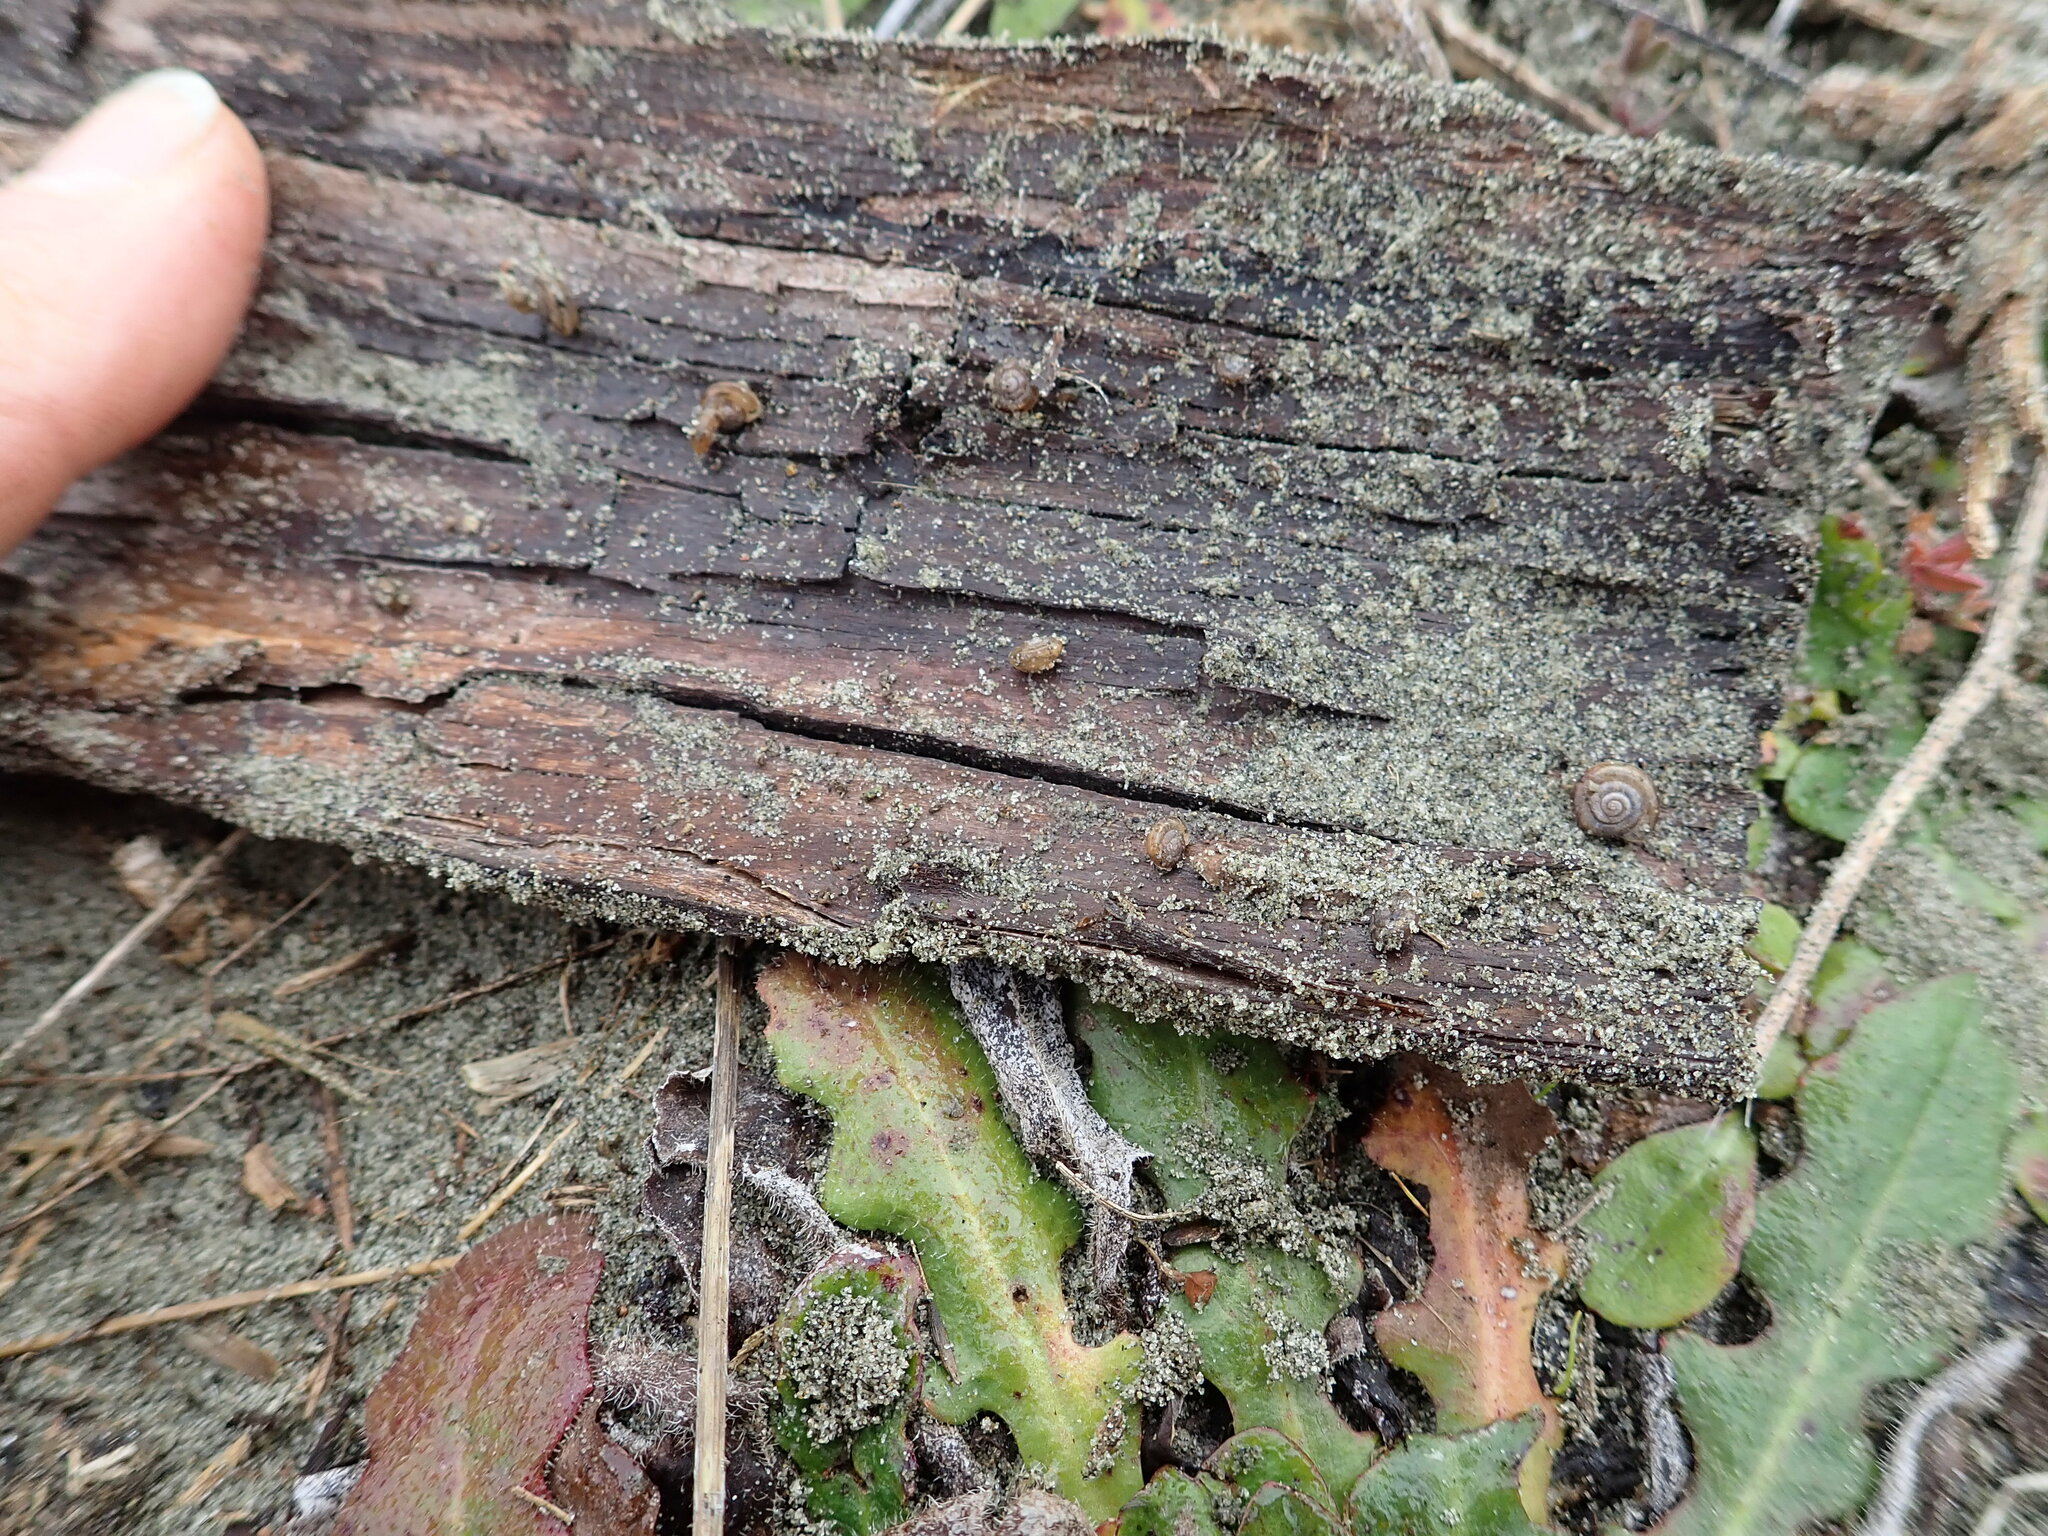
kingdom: Animalia
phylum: Mollusca
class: Gastropoda
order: Stylommatophora
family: Geomitridae
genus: Xeroplexa
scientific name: Xeroplexa intersecta
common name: Wrinkled snail
